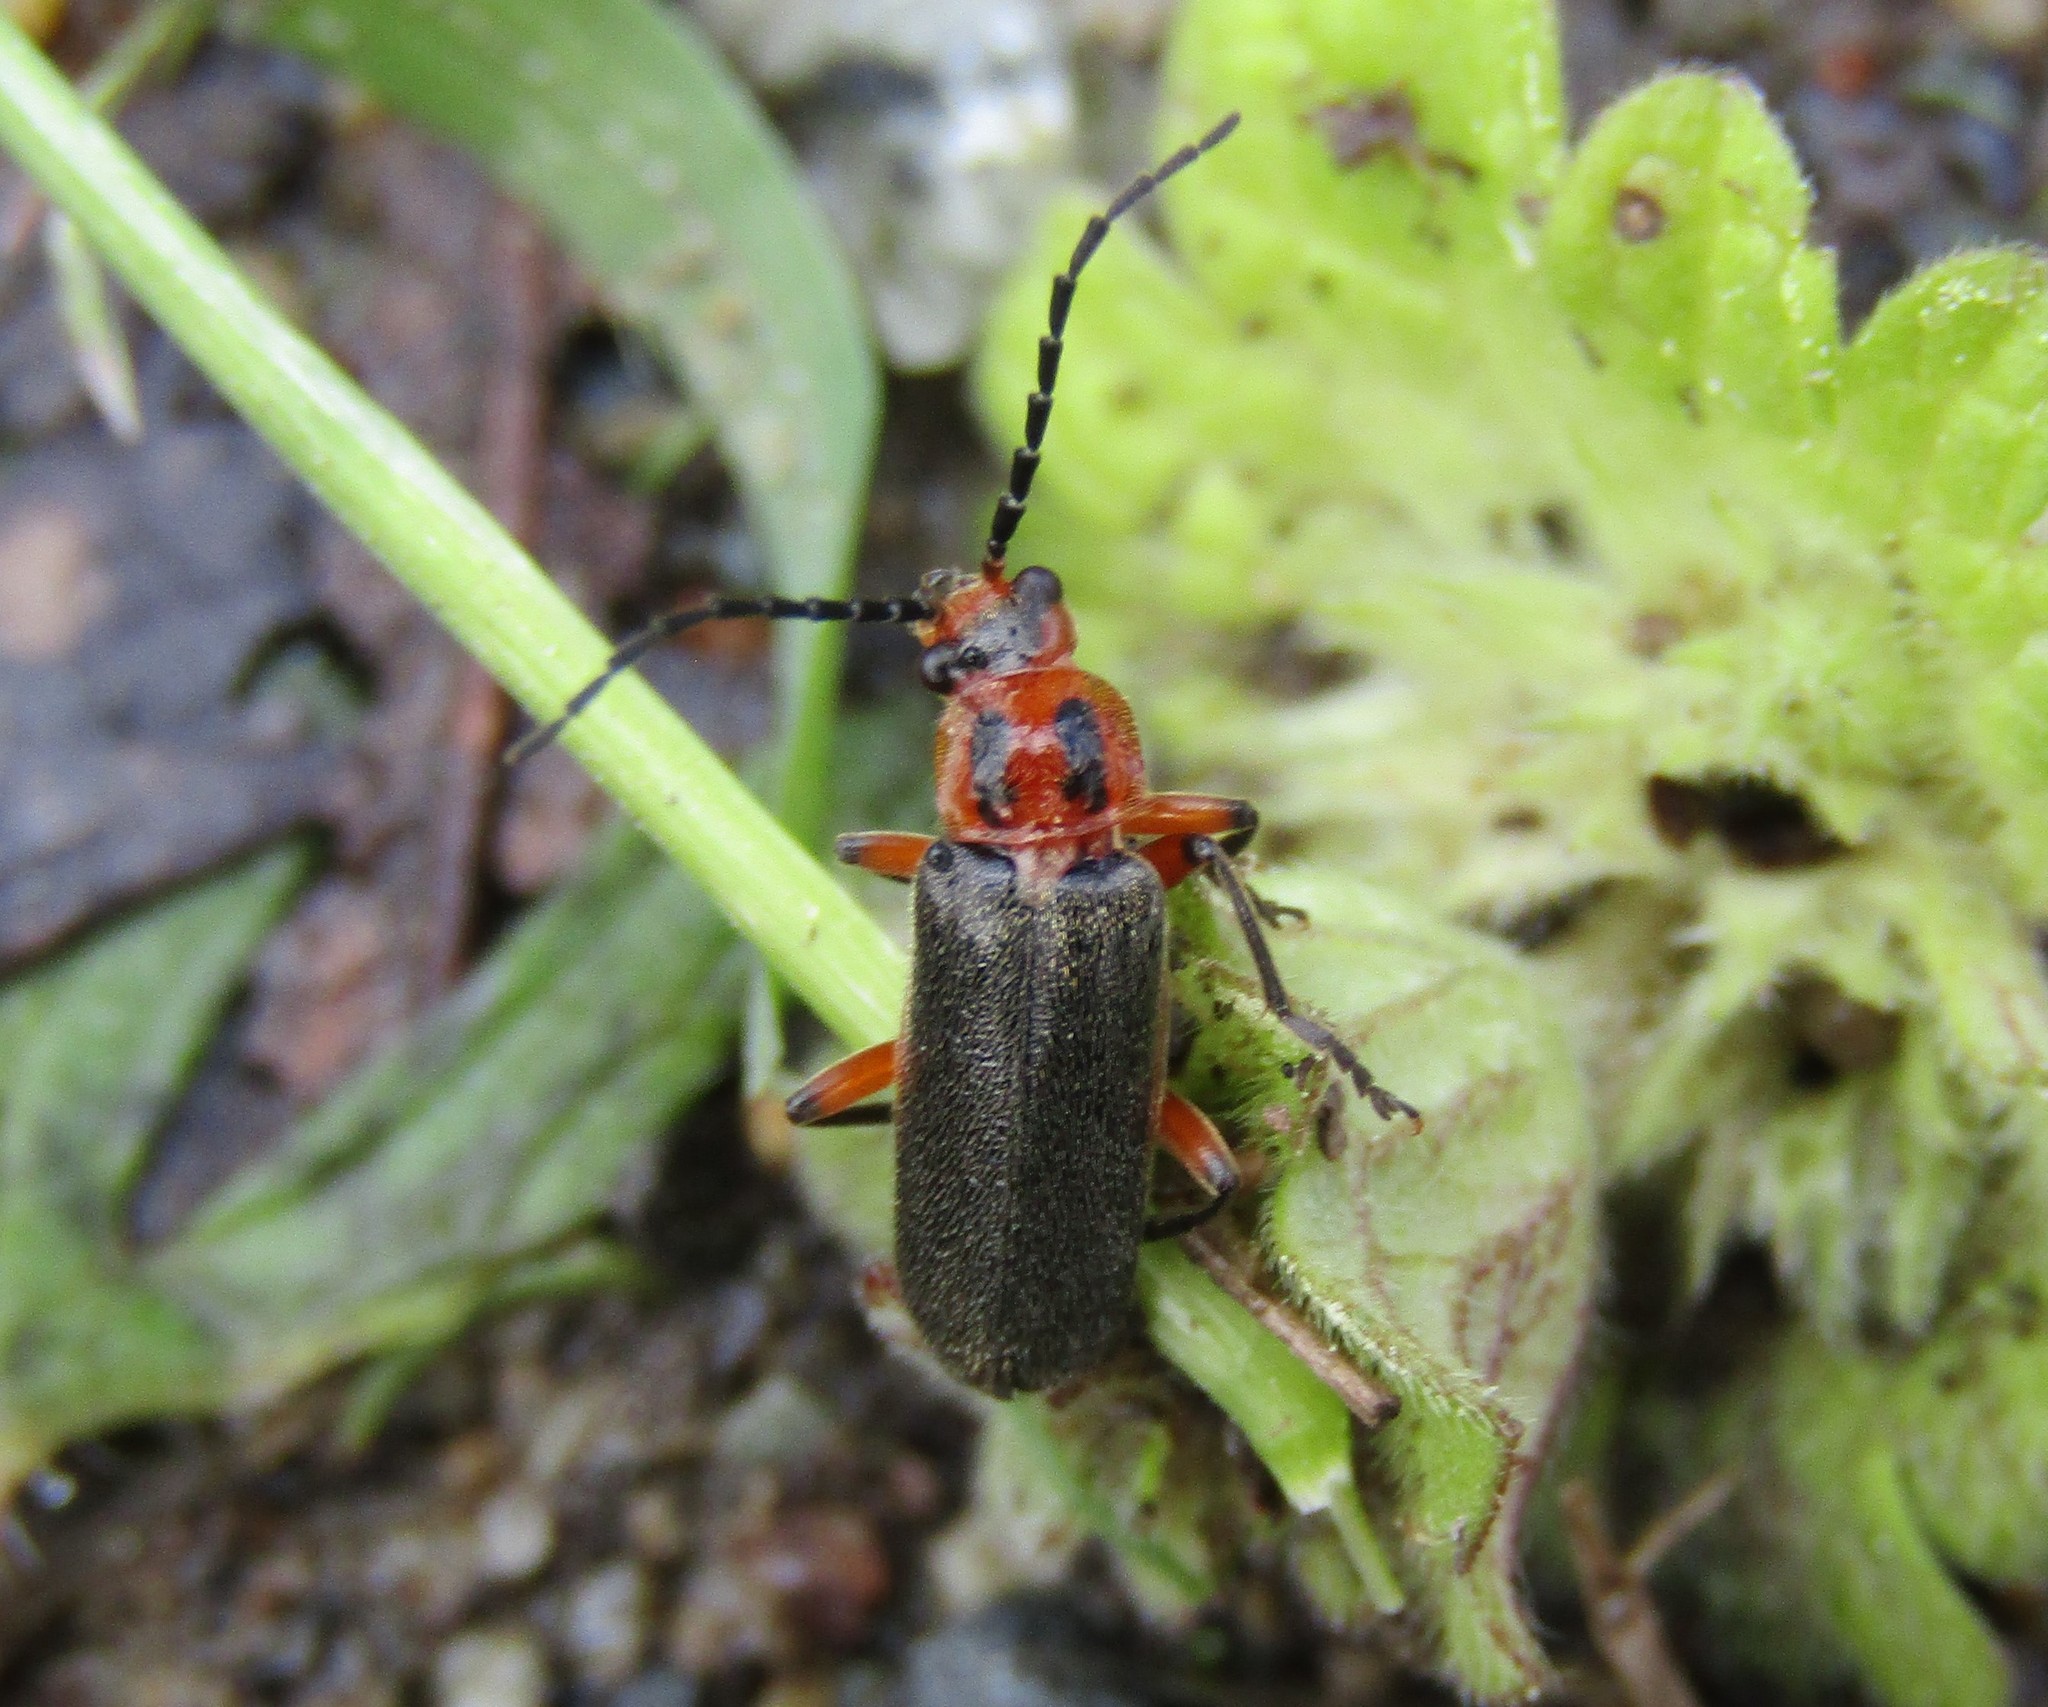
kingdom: Animalia
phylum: Arthropoda
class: Insecta
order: Coleoptera
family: Cantharidae
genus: Atalantycha
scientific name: Atalantycha bilineata
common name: Two-lined leatherwing
